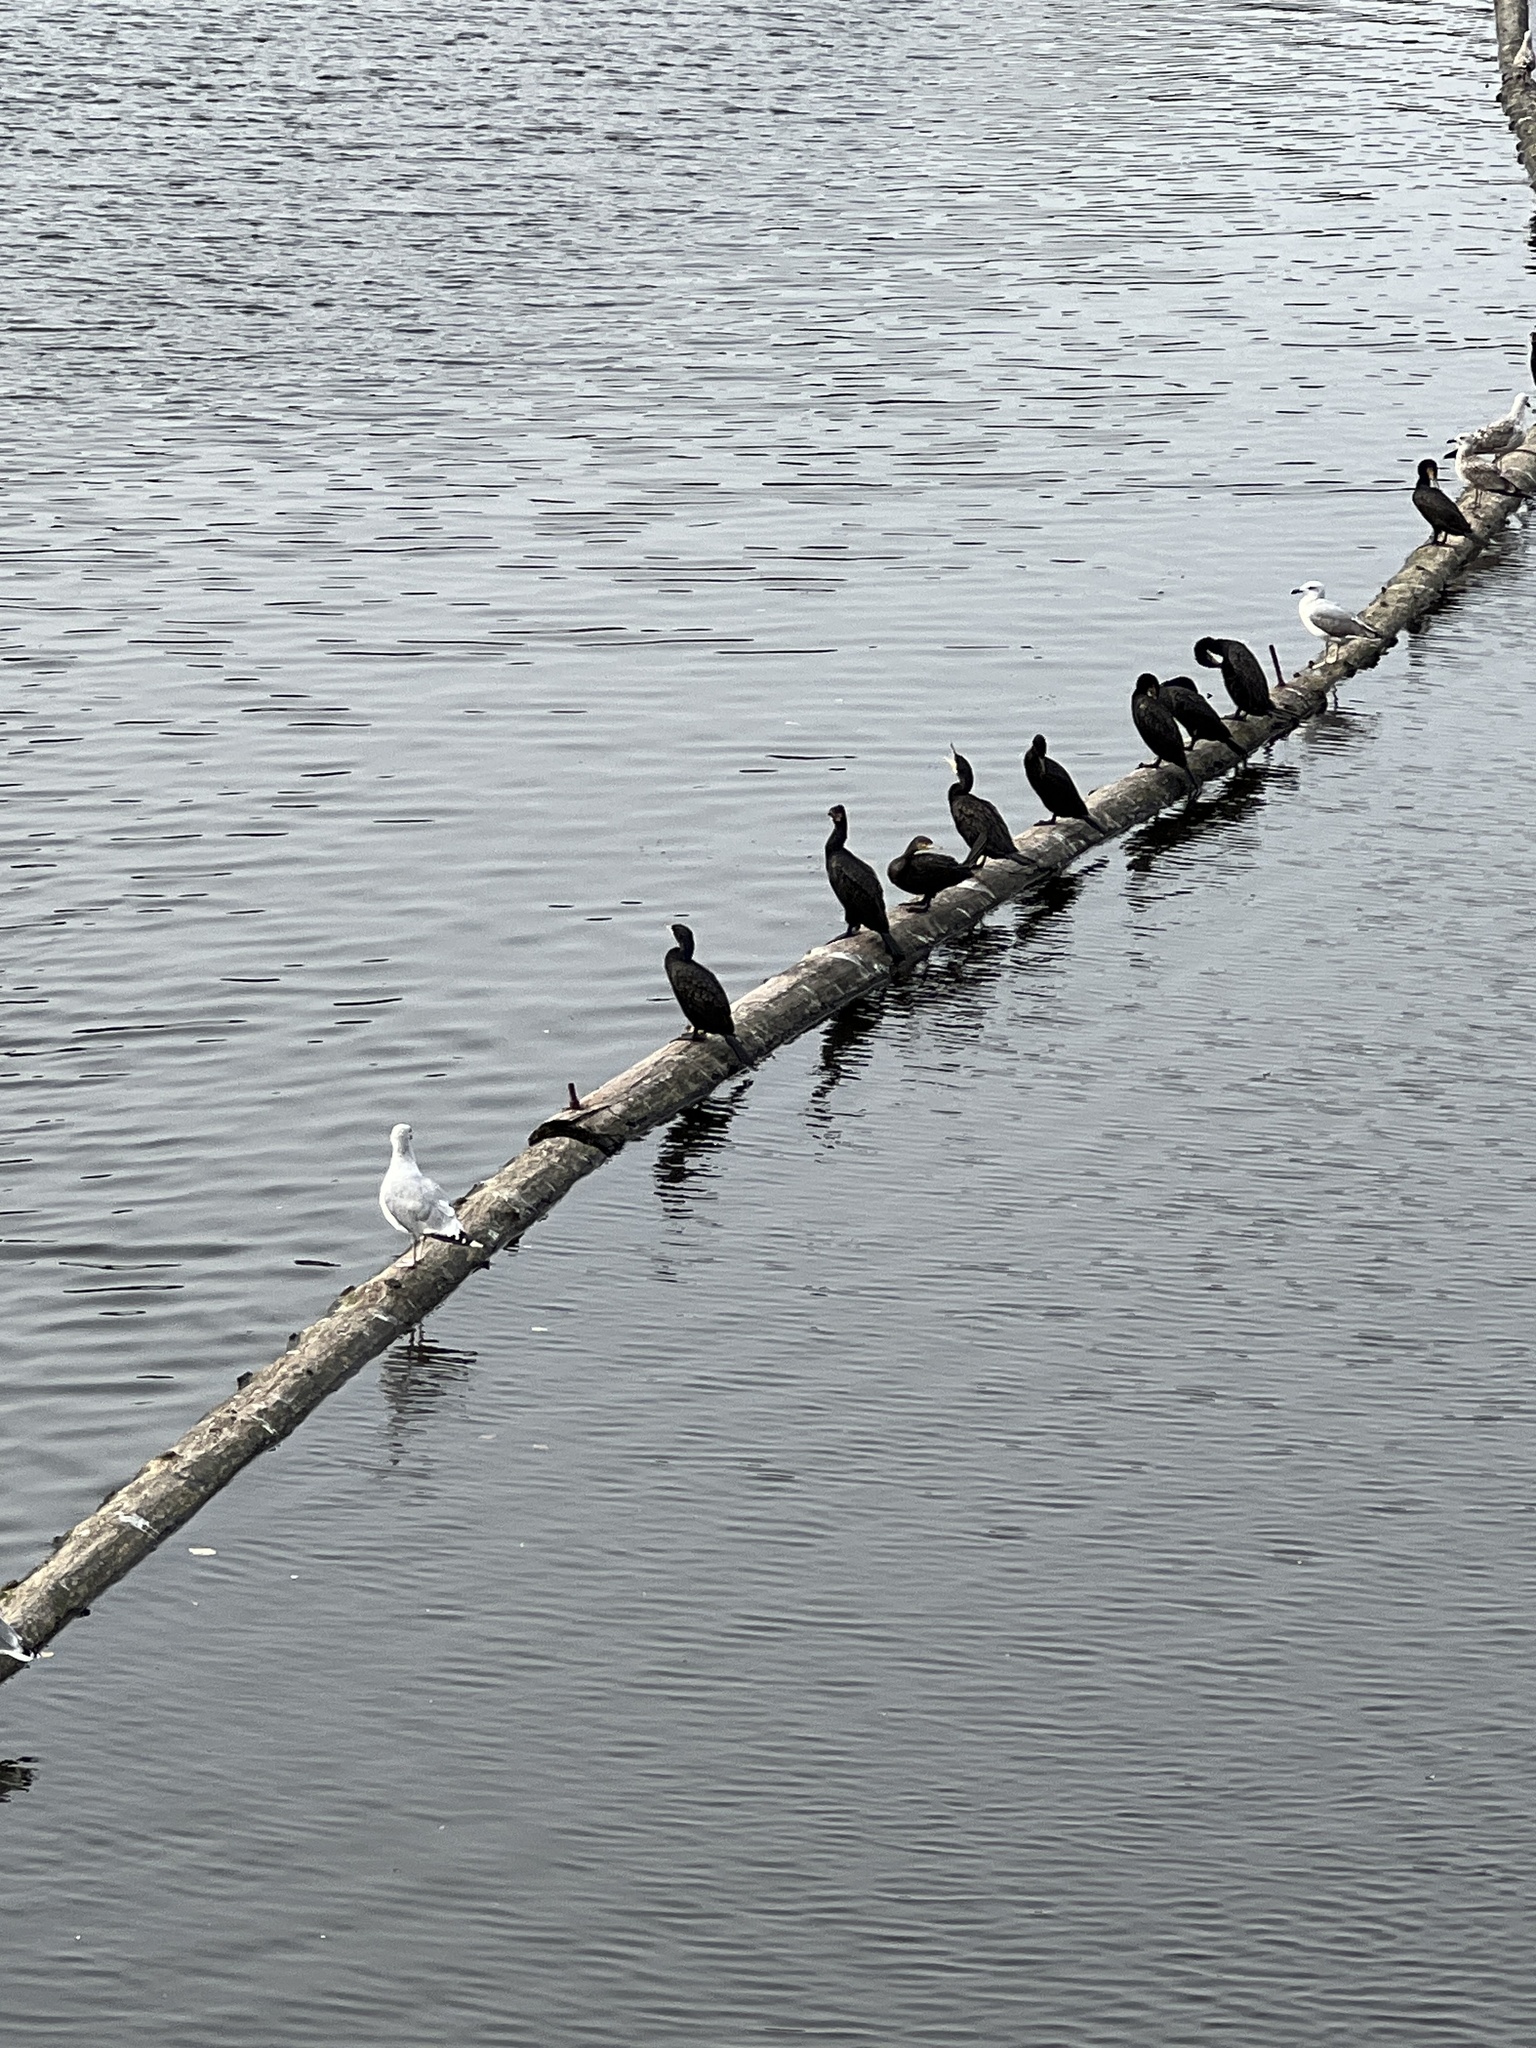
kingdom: Animalia
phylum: Chordata
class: Aves
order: Suliformes
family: Phalacrocoracidae
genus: Phalacrocorax
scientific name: Phalacrocorax carbo
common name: Great cormorant
